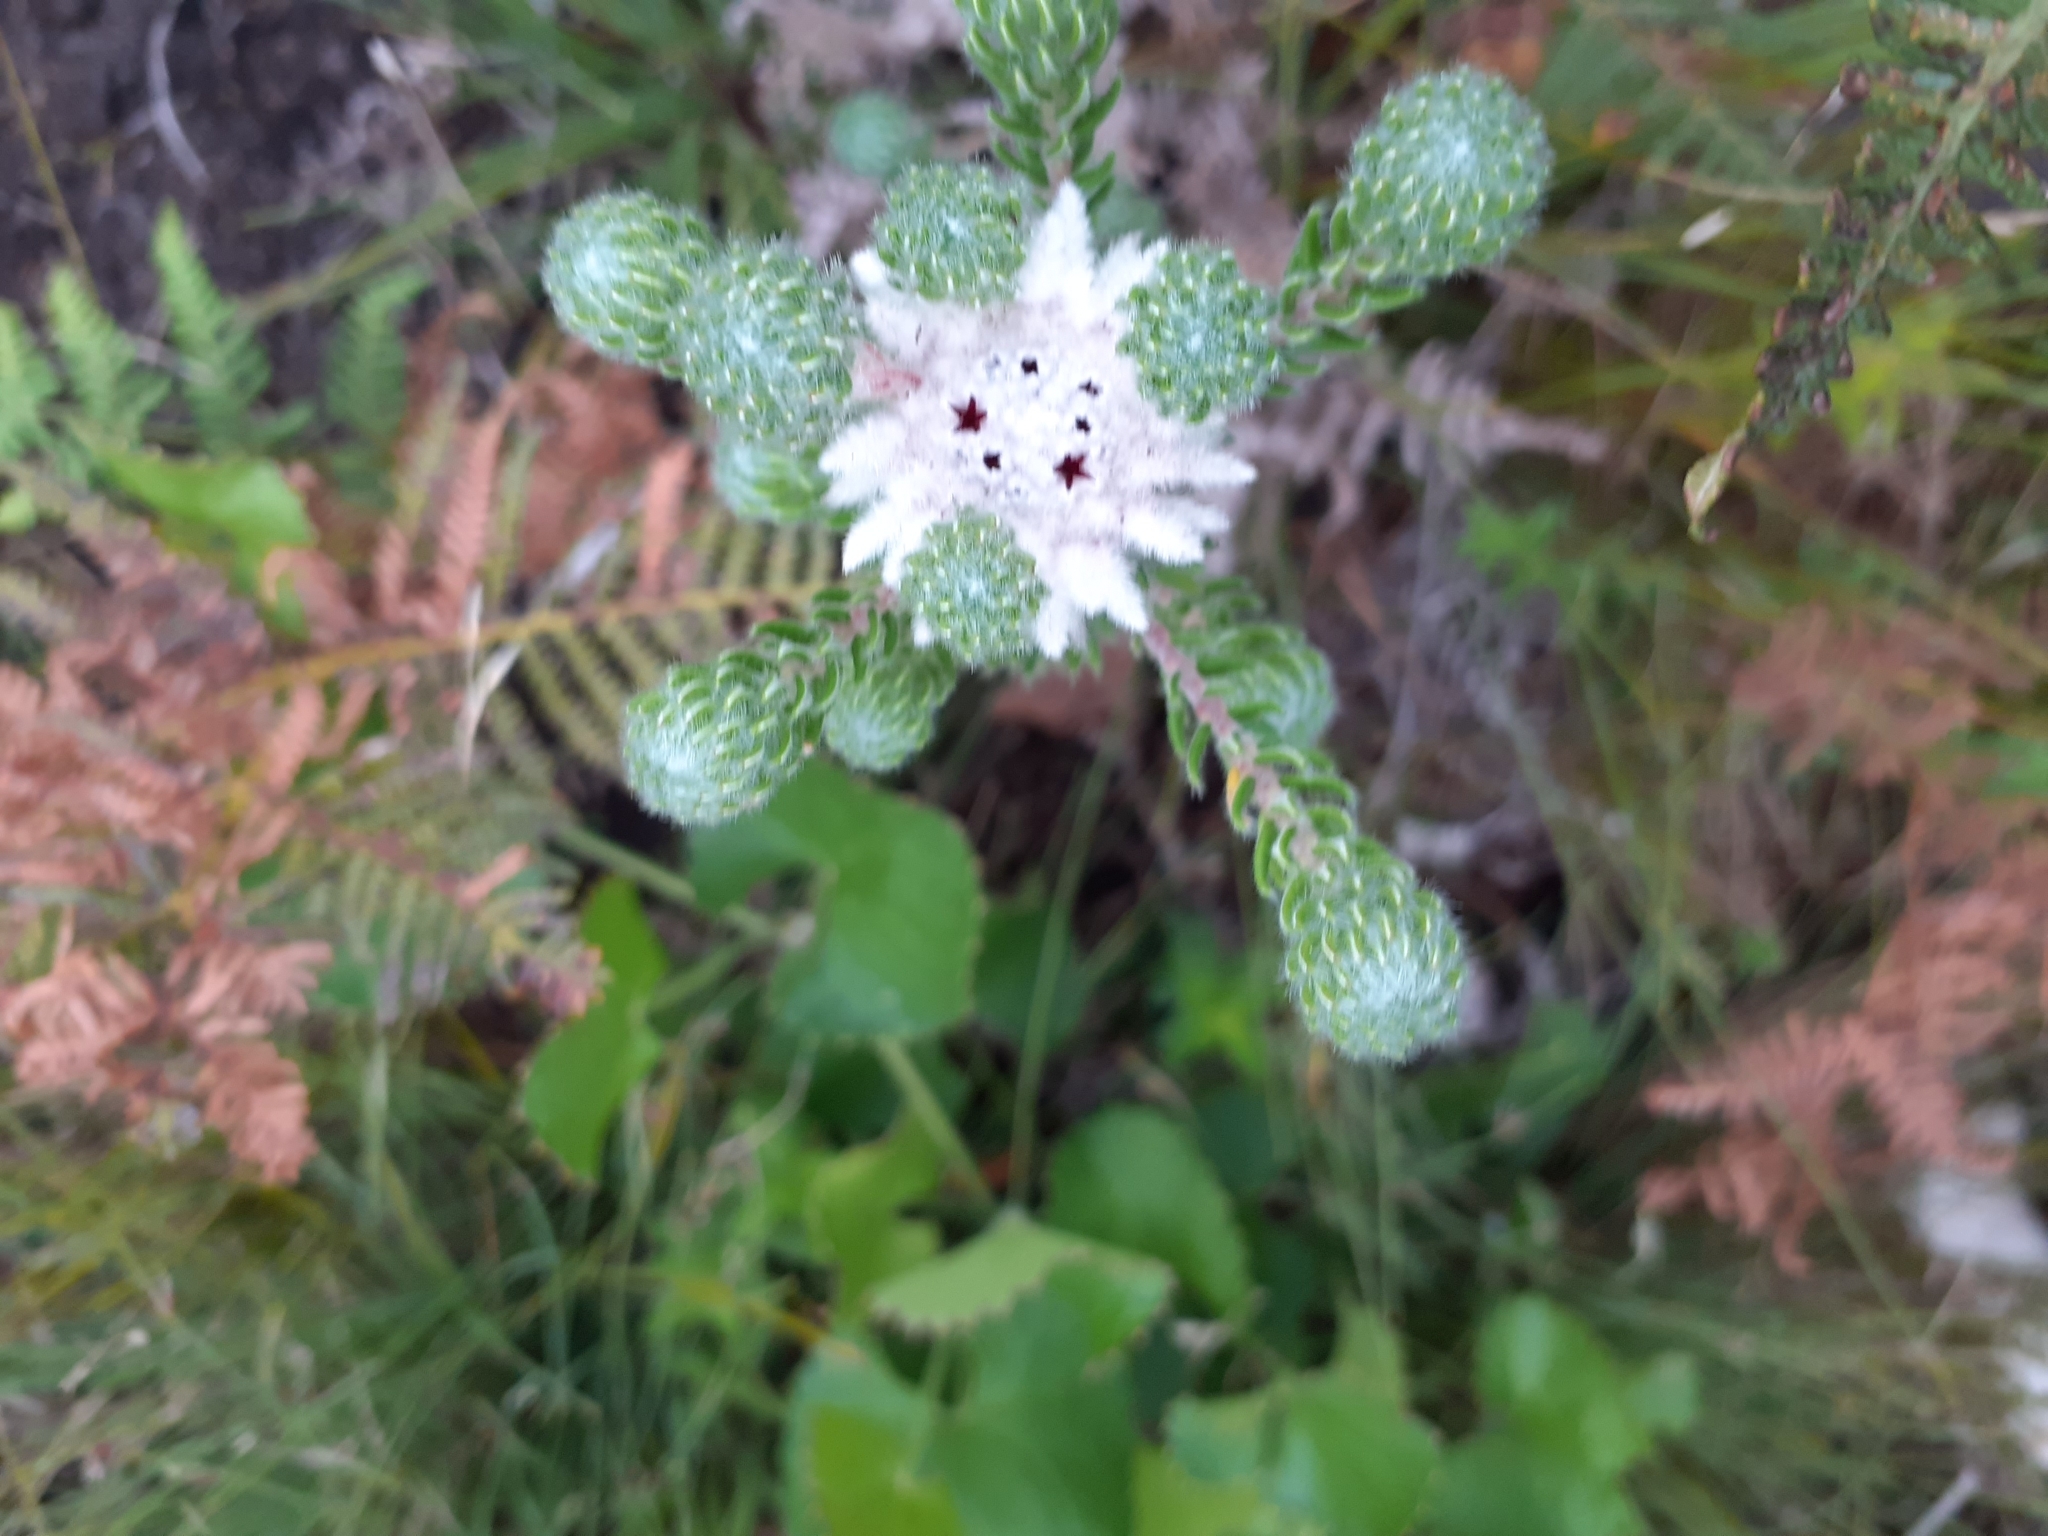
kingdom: Plantae
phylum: Tracheophyta
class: Magnoliopsida
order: Rosales
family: Rhamnaceae
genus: Phylica
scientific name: Phylica curvifolia
